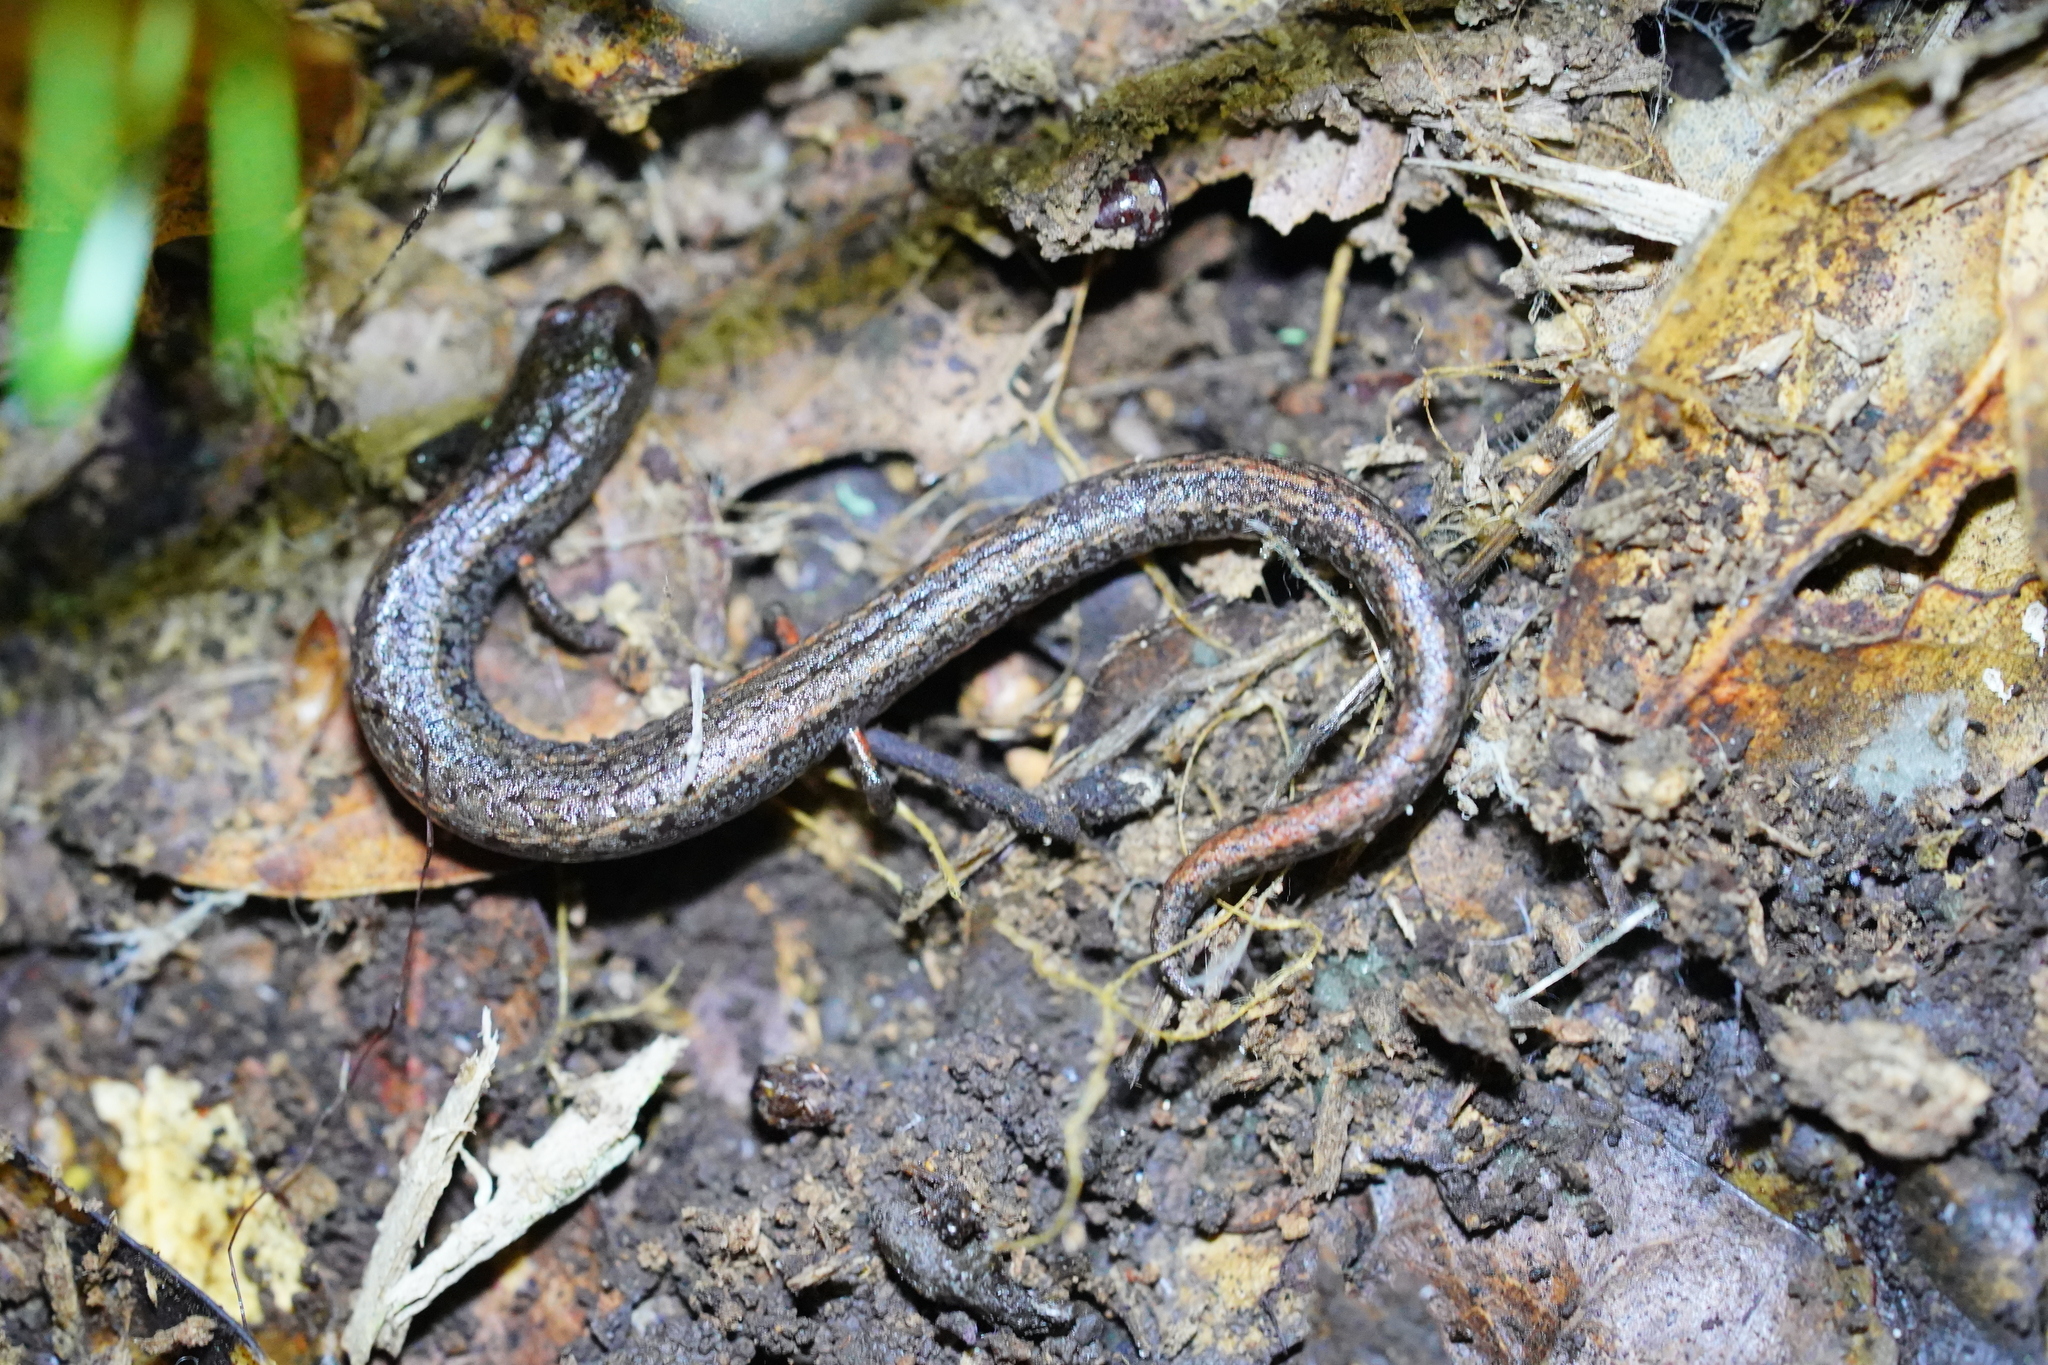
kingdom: Animalia
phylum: Chordata
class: Amphibia
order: Caudata
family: Plethodontidae
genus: Batrachoseps
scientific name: Batrachoseps attenuatus
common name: California slender salamander
